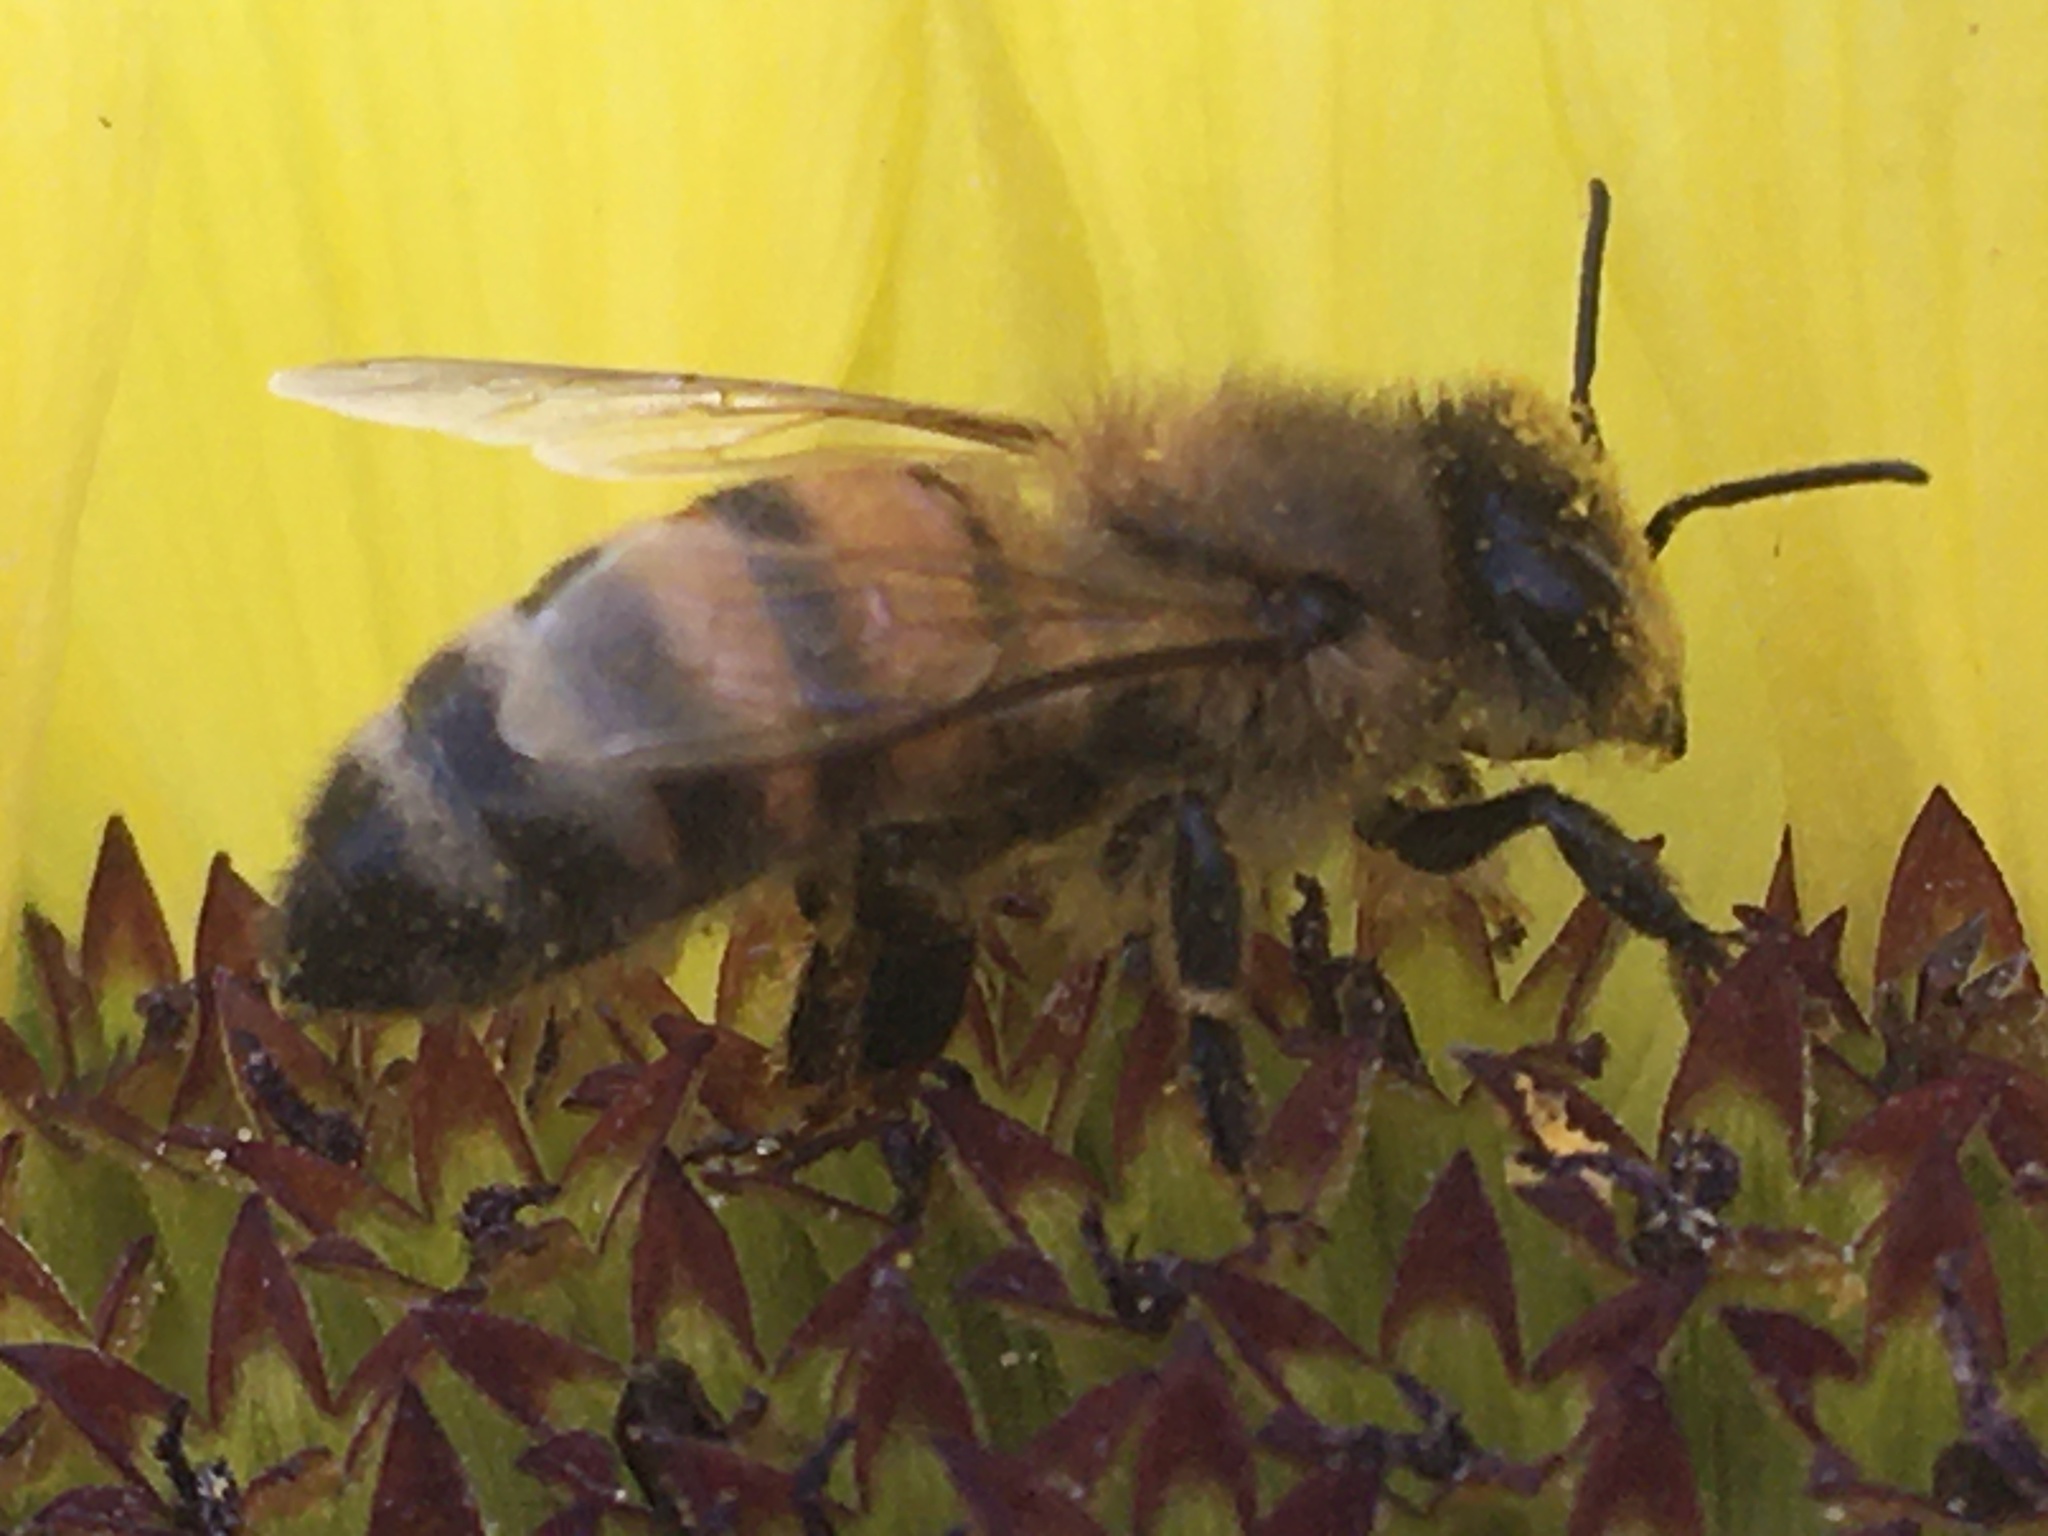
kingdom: Animalia
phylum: Arthropoda
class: Insecta
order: Hymenoptera
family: Apidae
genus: Apis
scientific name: Apis mellifera
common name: Honey bee
